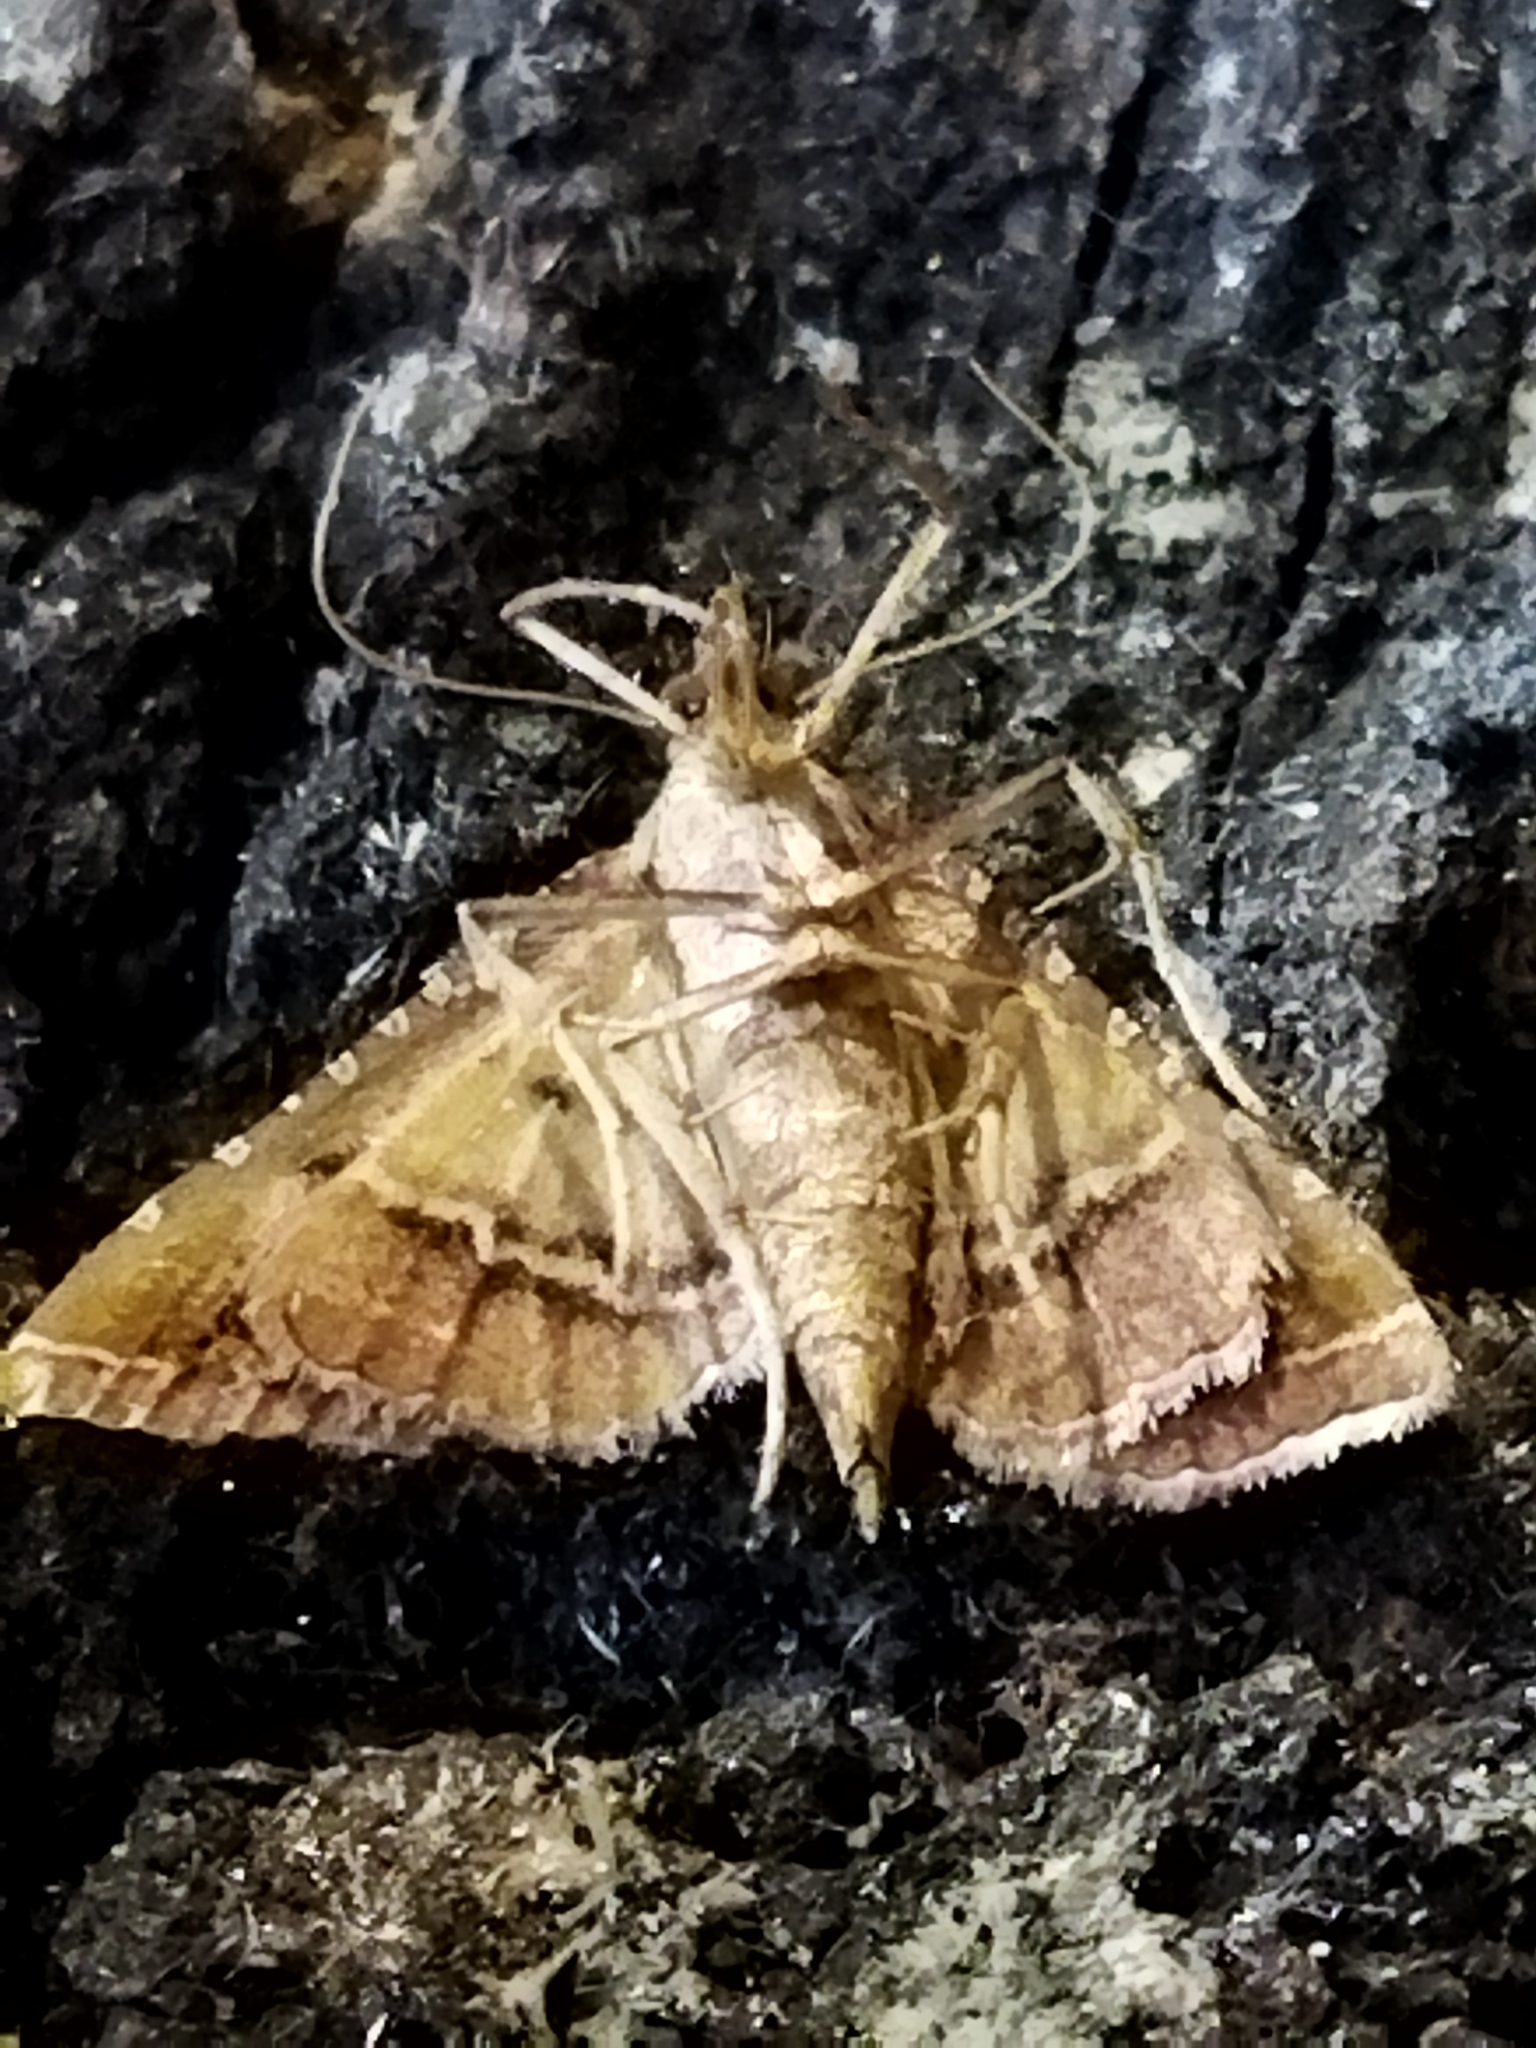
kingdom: Animalia
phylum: Arthropoda
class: Insecta
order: Lepidoptera
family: Pyralidae
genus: Endotricha
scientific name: Endotricha flammealis
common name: Rosy tabby
